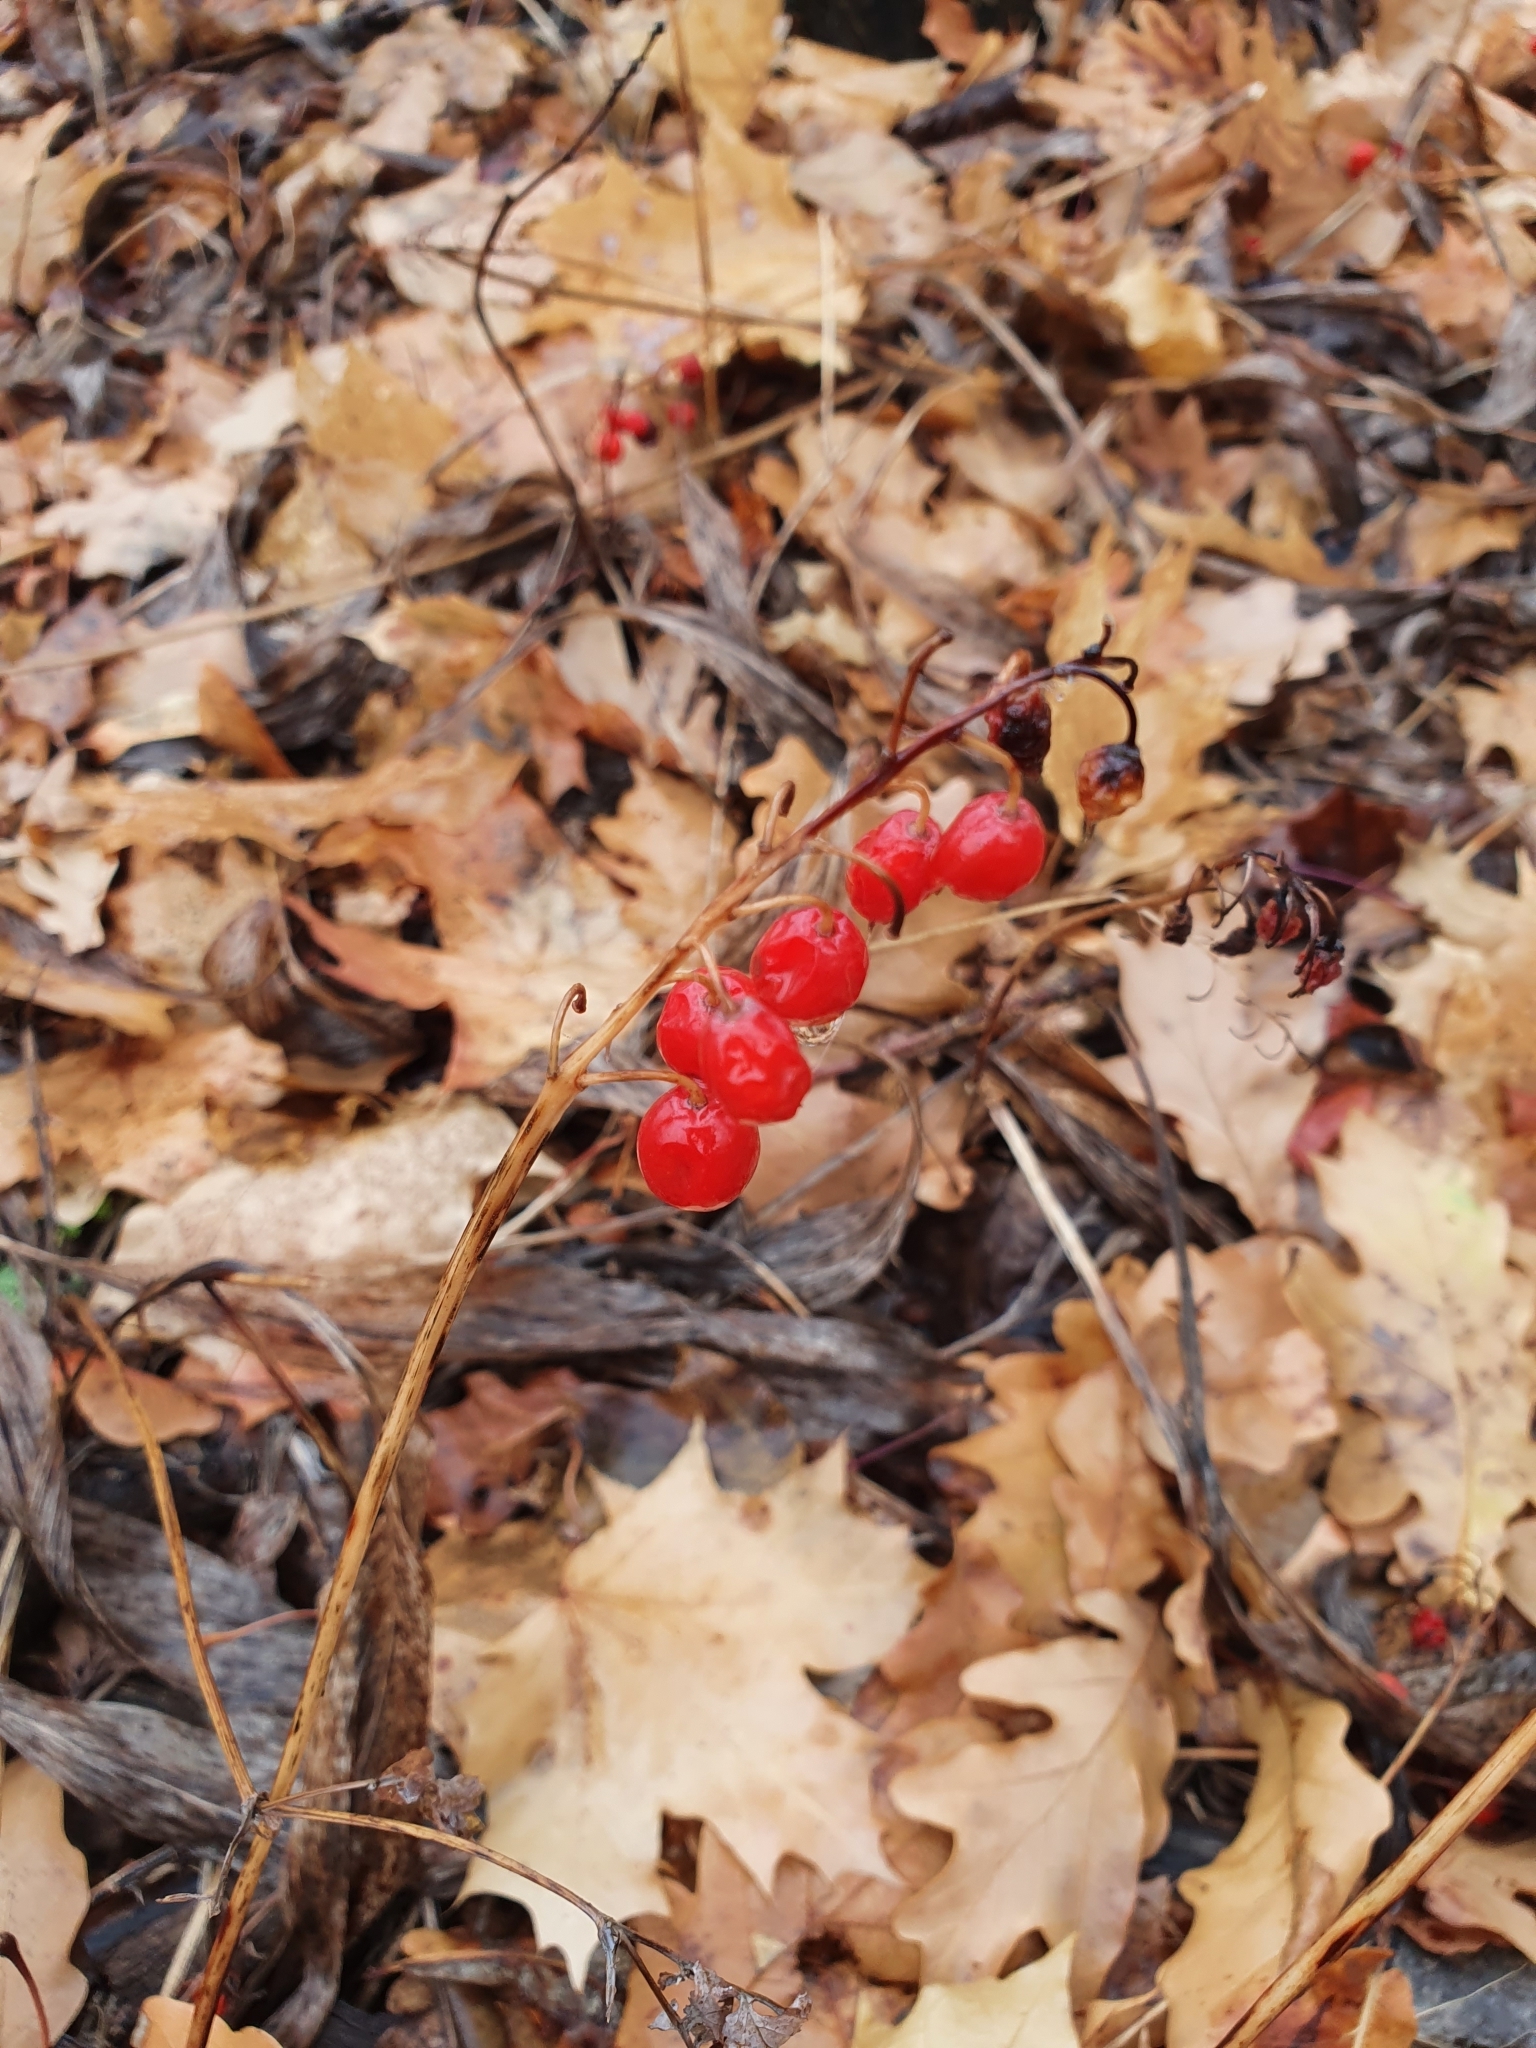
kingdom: Plantae
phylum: Tracheophyta
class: Liliopsida
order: Asparagales
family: Asparagaceae
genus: Convallaria
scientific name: Convallaria majalis
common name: Lily-of-the-valley
